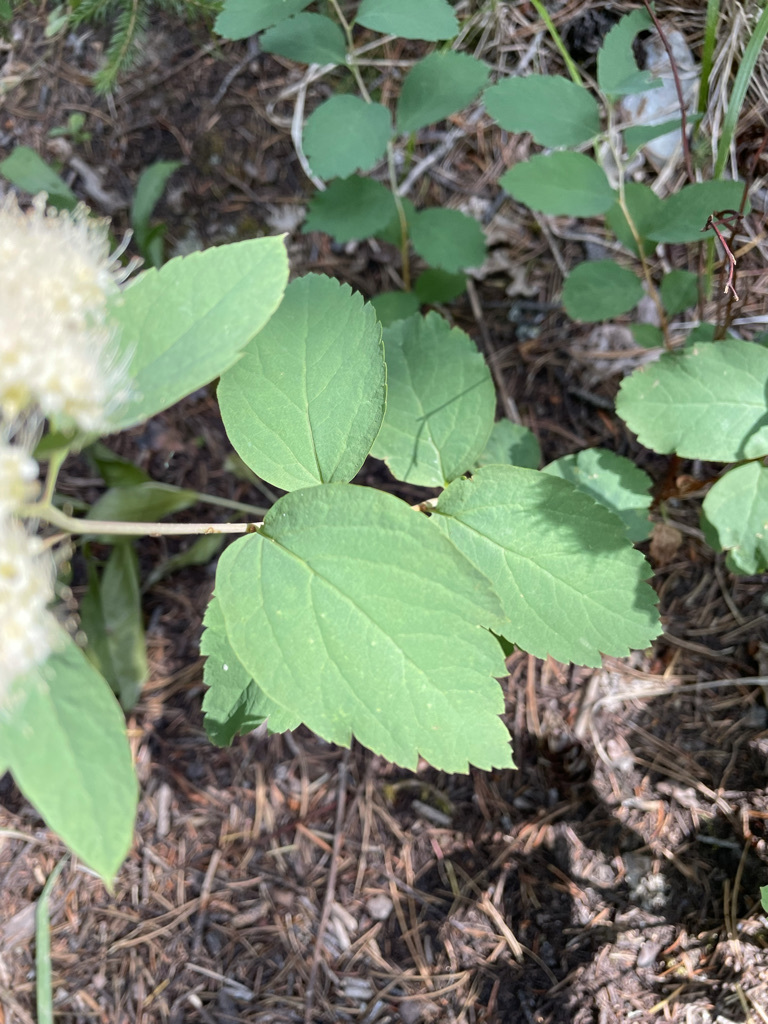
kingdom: Plantae
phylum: Tracheophyta
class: Magnoliopsida
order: Rosales
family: Rosaceae
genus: Spiraea
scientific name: Spiraea lucida
